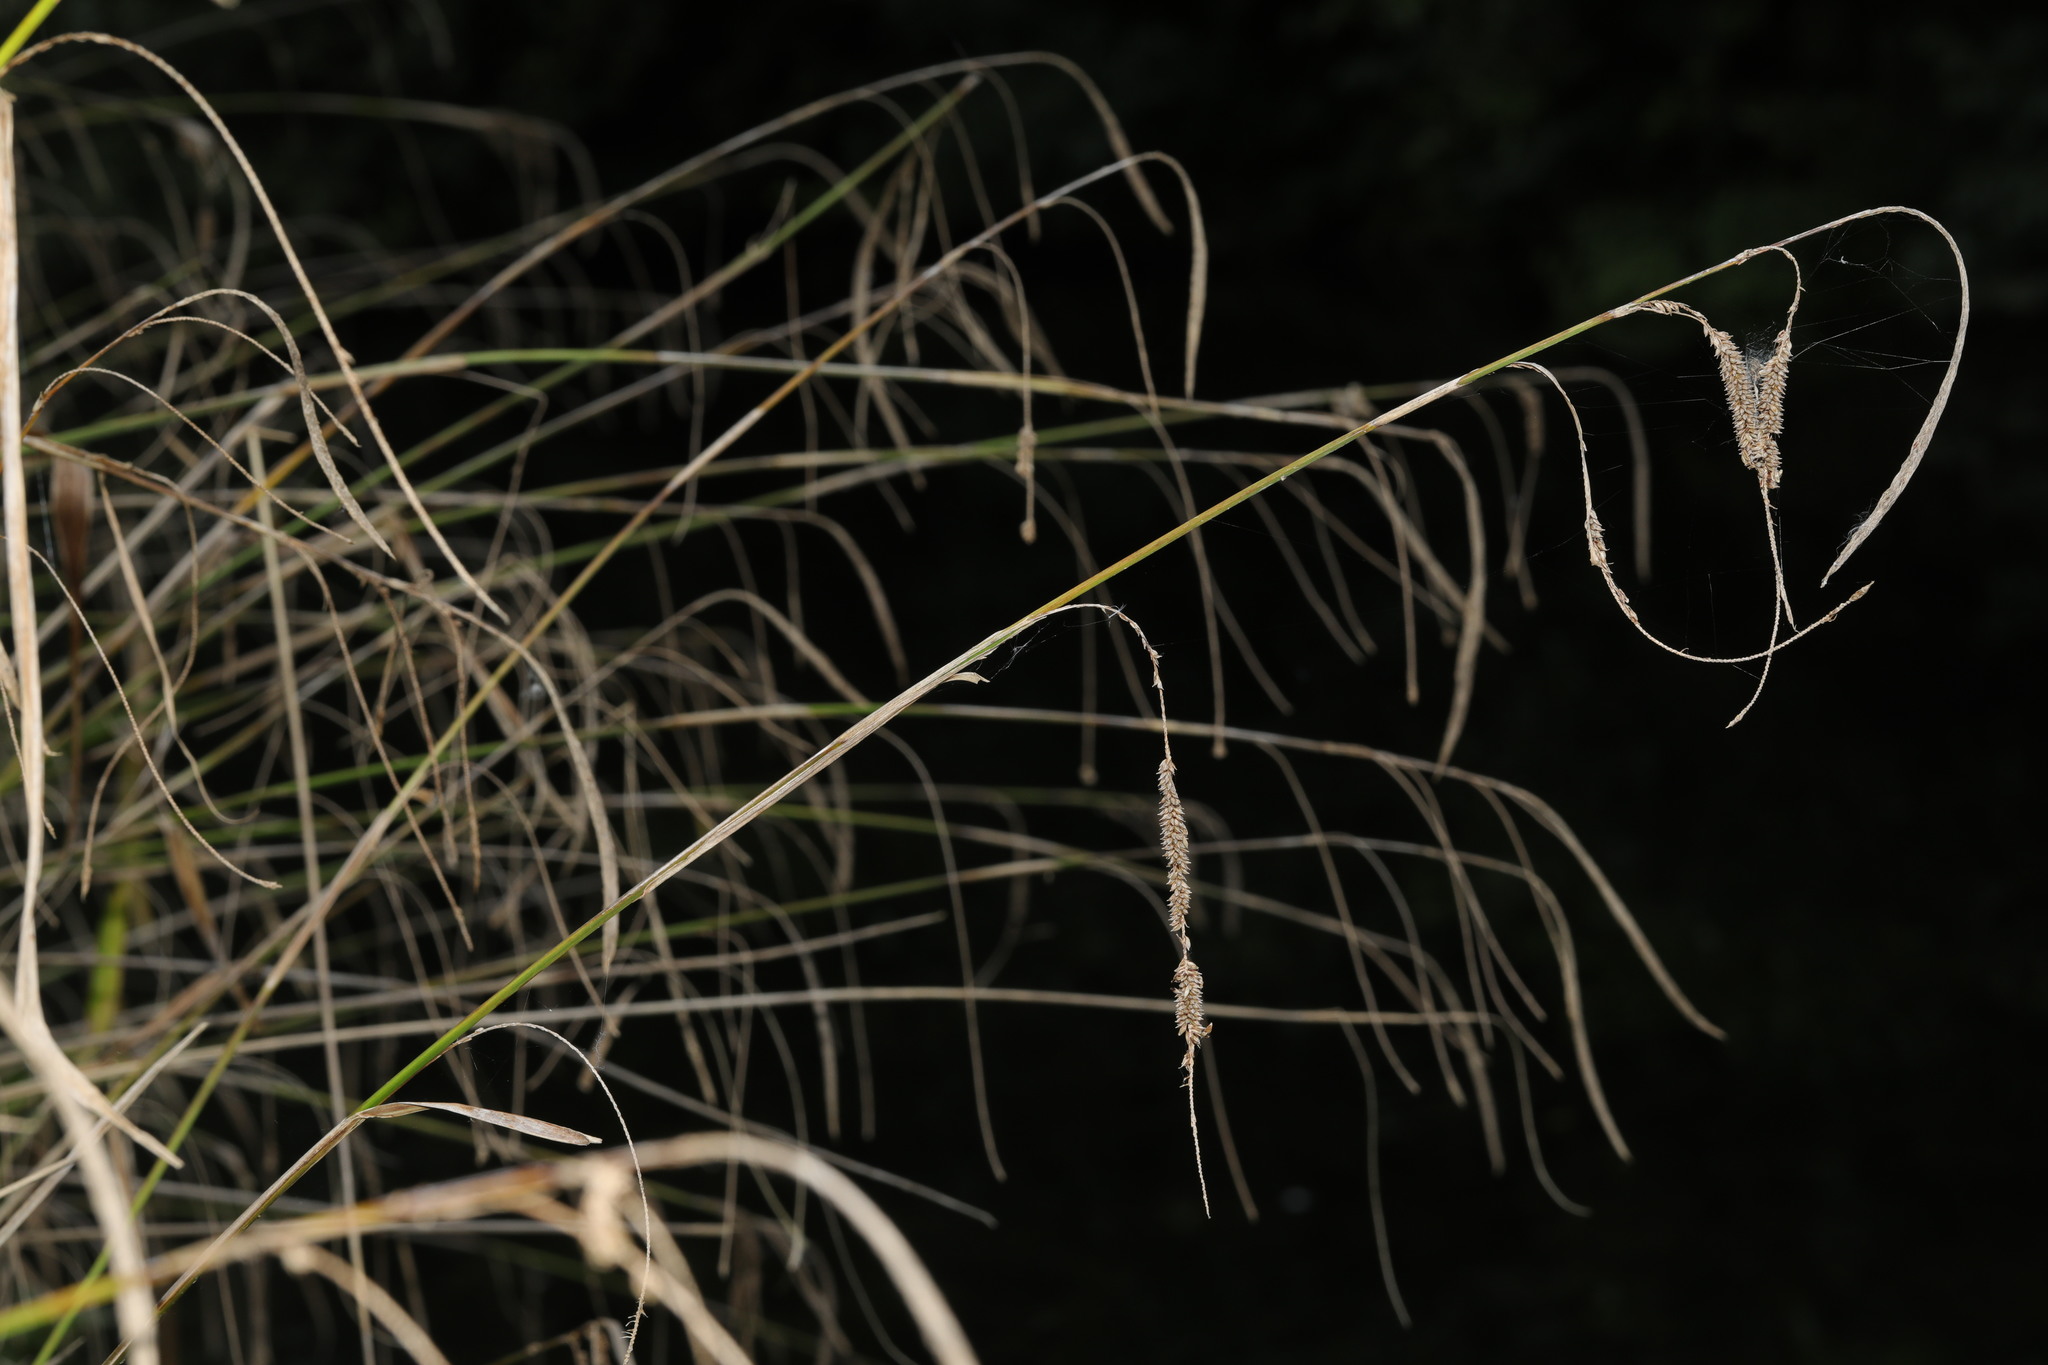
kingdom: Plantae
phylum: Tracheophyta
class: Liliopsida
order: Poales
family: Cyperaceae
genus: Carex
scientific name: Carex pendula
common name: Pendulous sedge
